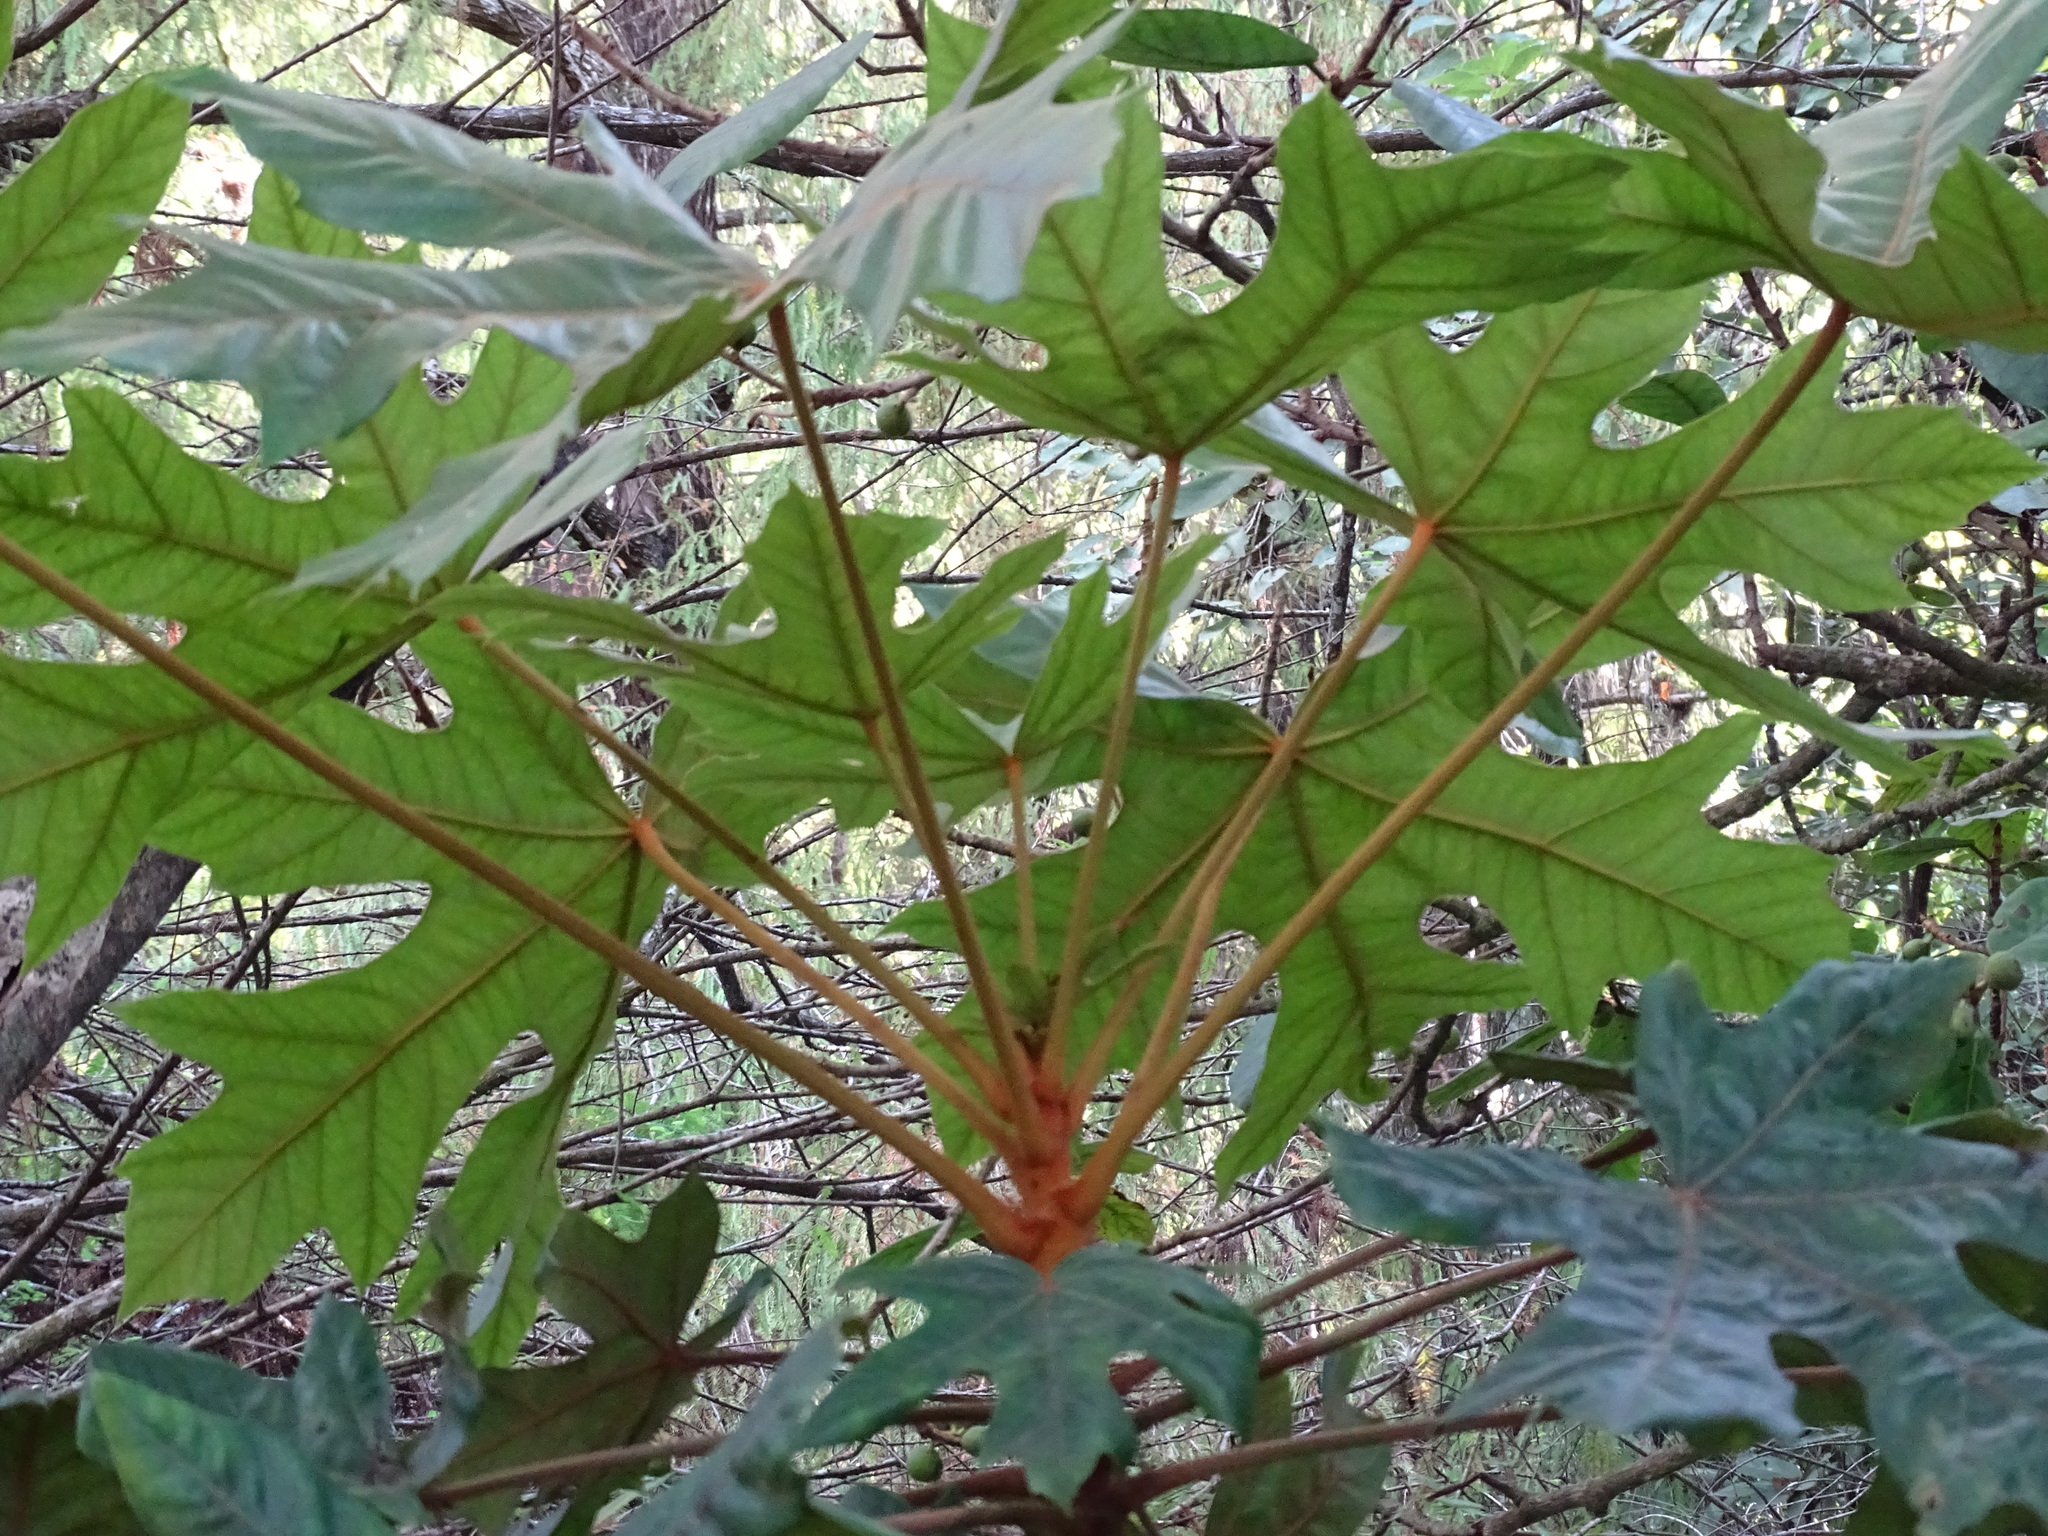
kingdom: Plantae
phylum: Tracheophyta
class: Magnoliopsida
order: Apiales
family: Araliaceae
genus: Oreopanax
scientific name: Oreopanax geminatus
